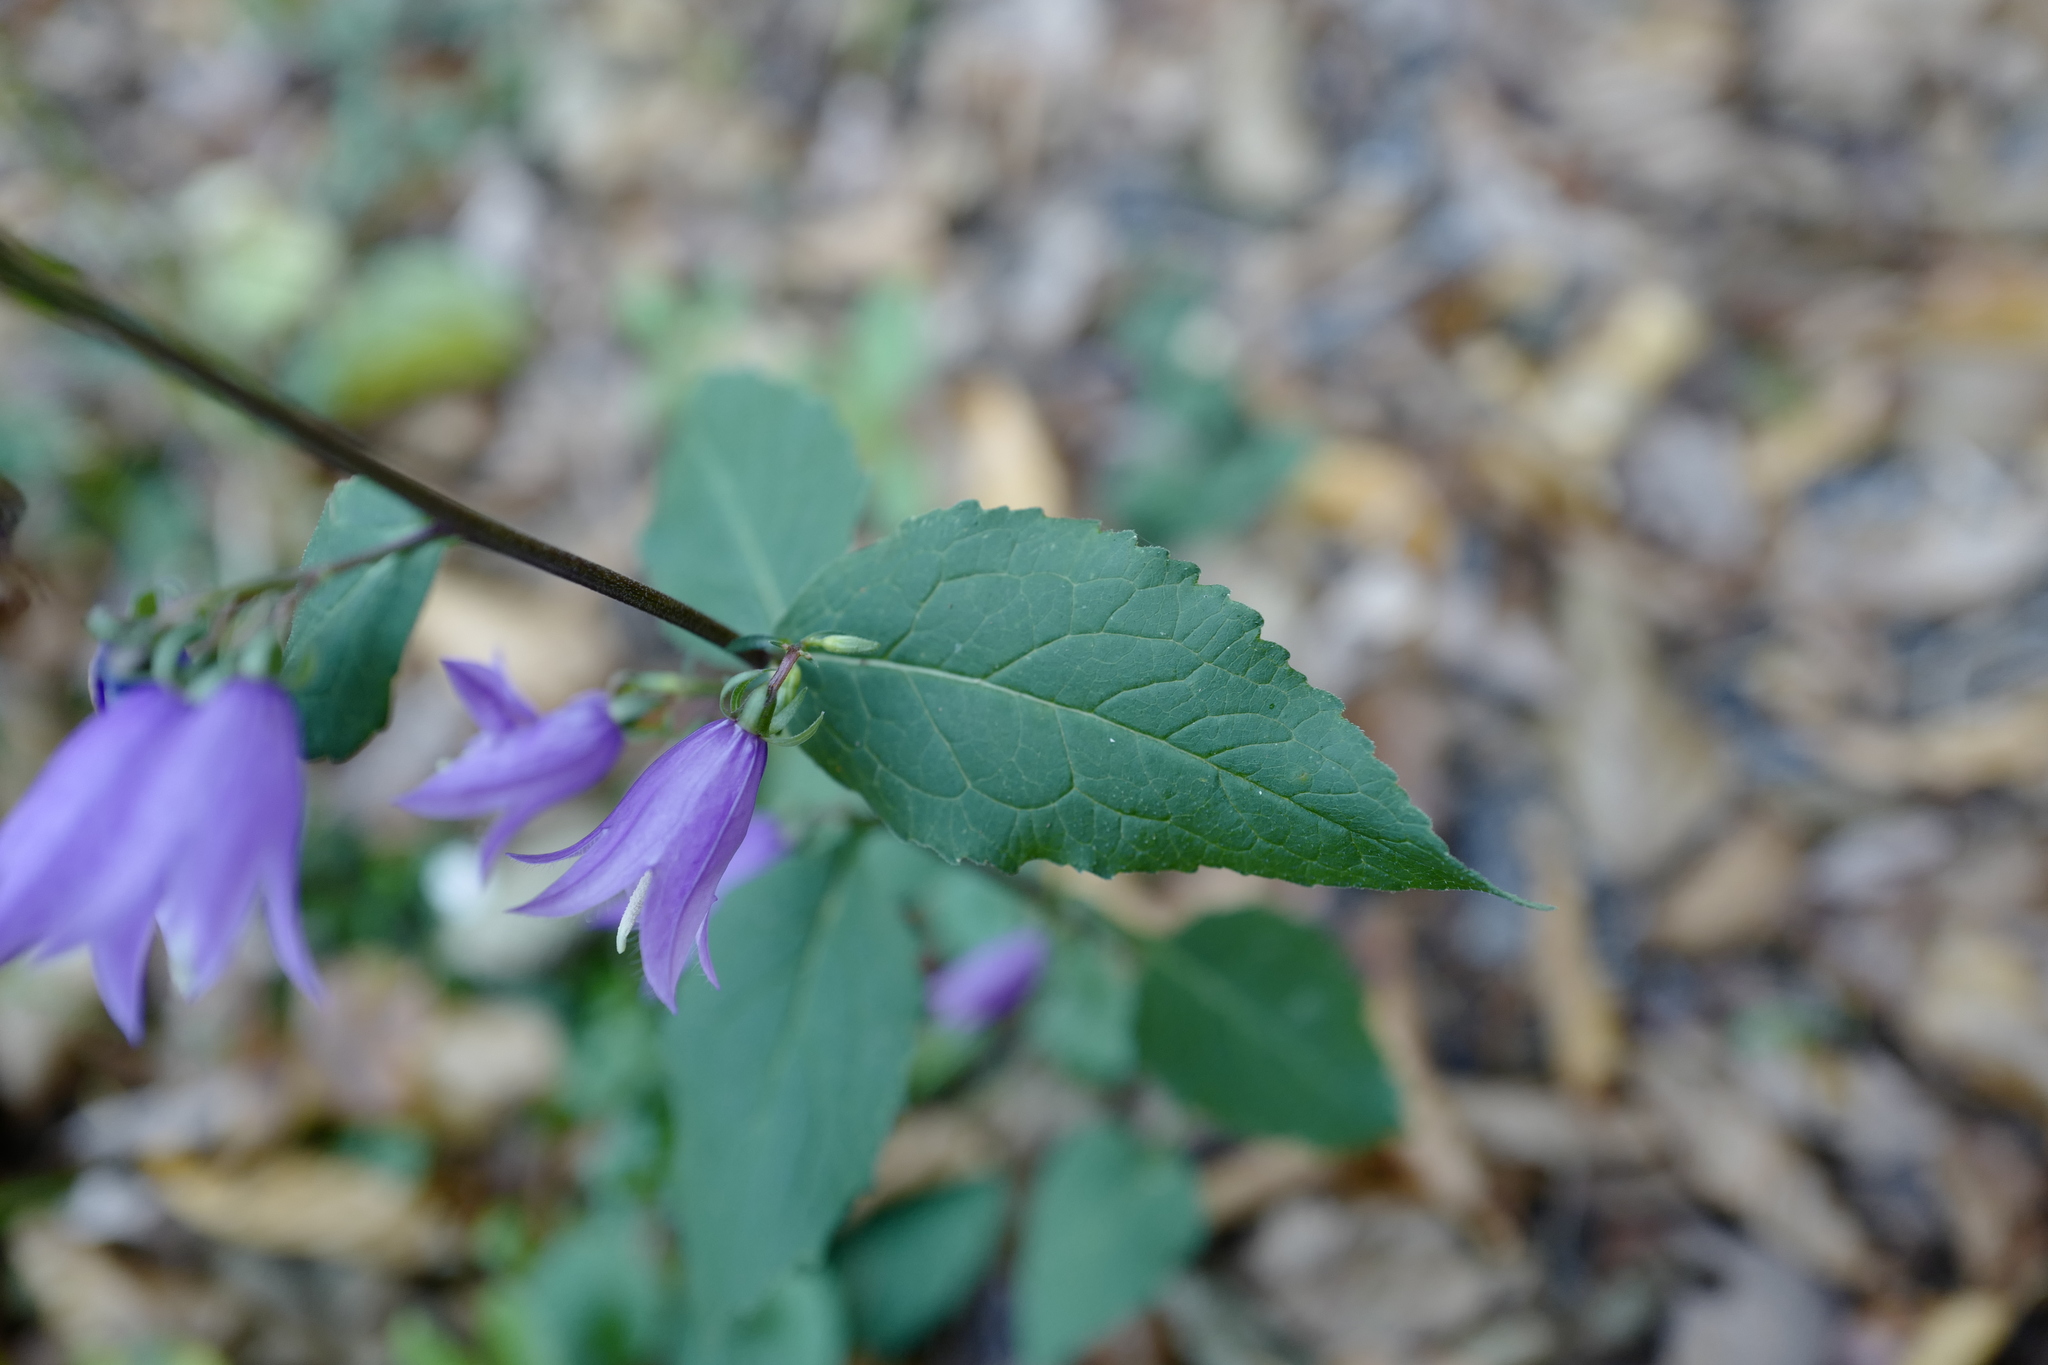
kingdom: Plantae
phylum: Tracheophyta
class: Magnoliopsida
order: Asterales
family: Campanulaceae
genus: Campanula
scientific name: Campanula rapunculoides
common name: Creeping bellflower
